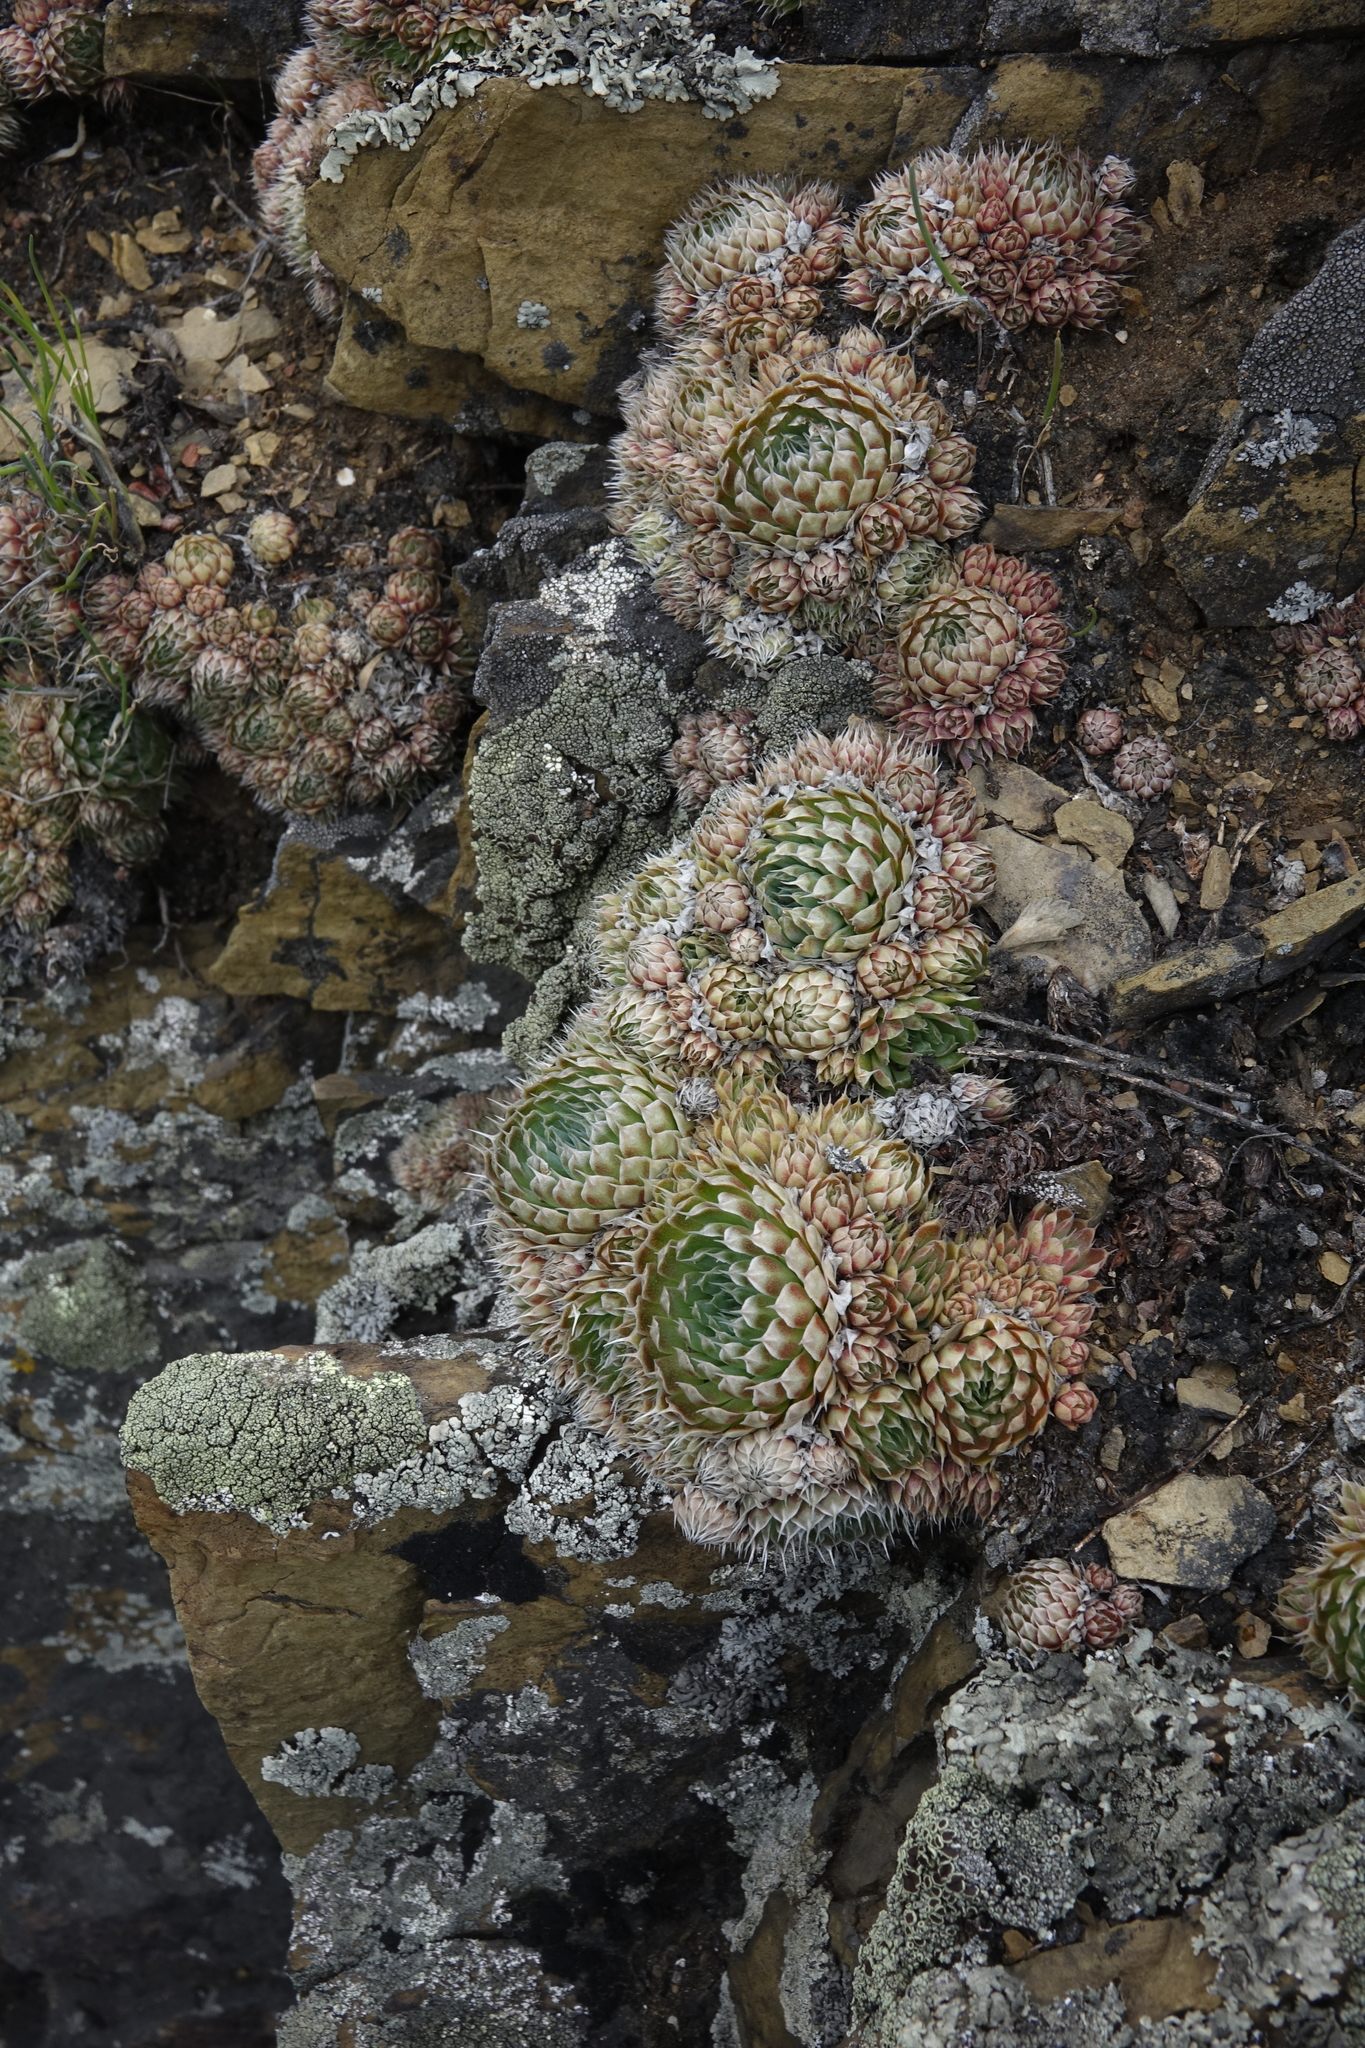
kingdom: Plantae
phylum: Tracheophyta
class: Magnoliopsida
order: Saxifragales
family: Crassulaceae
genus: Orostachys
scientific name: Orostachys spinosa
